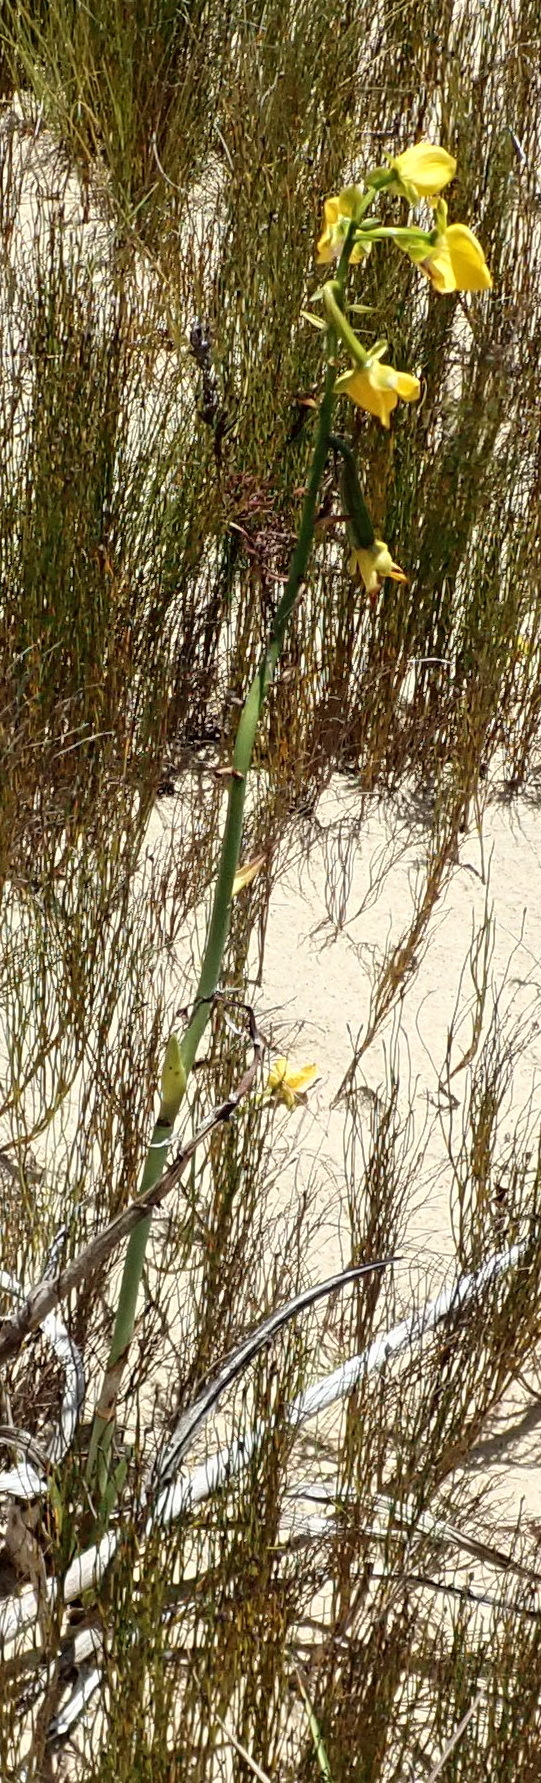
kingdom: Plantae
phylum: Tracheophyta
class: Liliopsida
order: Asparagales
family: Orchidaceae
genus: Eulophia
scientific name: Eulophia speciosa
